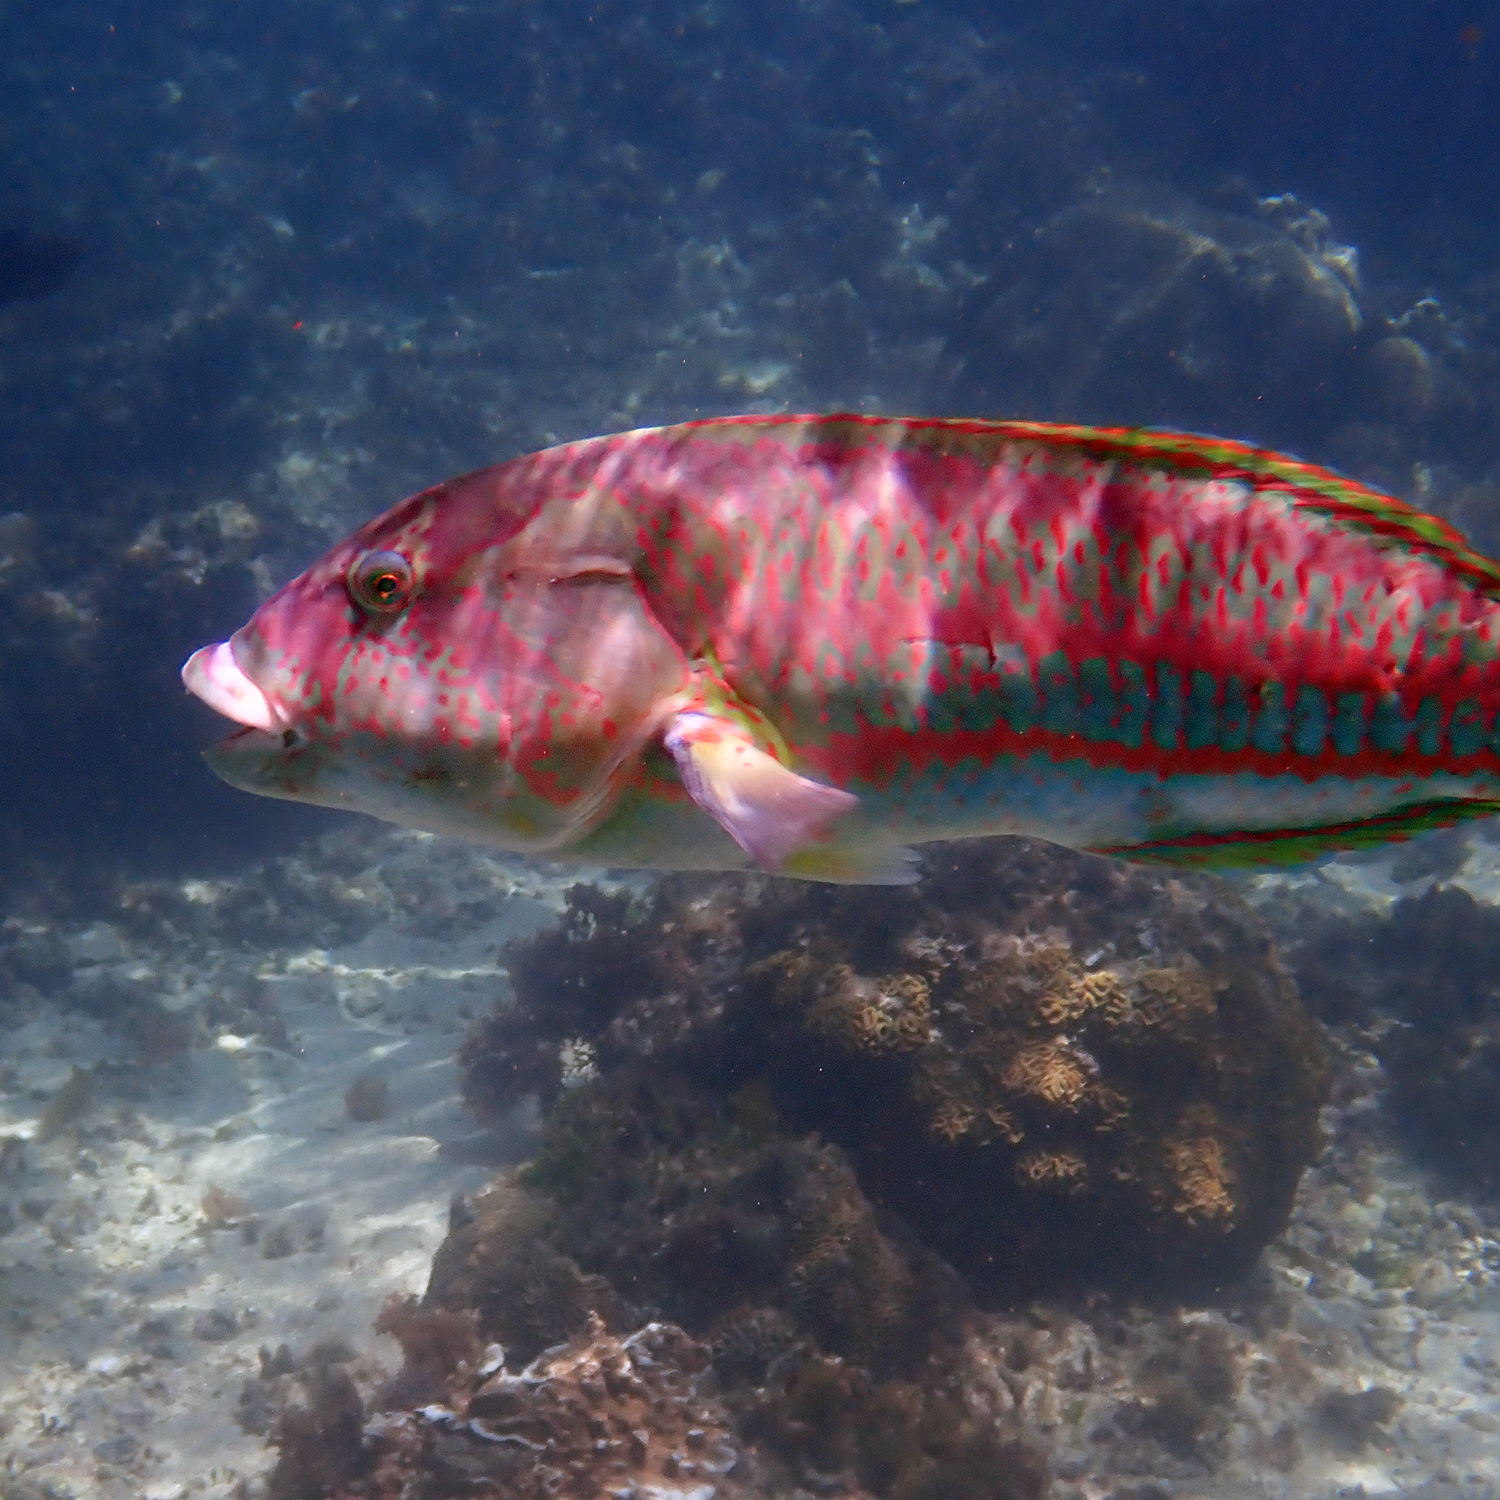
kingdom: Animalia
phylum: Chordata
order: Perciformes
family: Labridae
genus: Thalassoma
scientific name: Thalassoma purpureum
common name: Parrotfish
